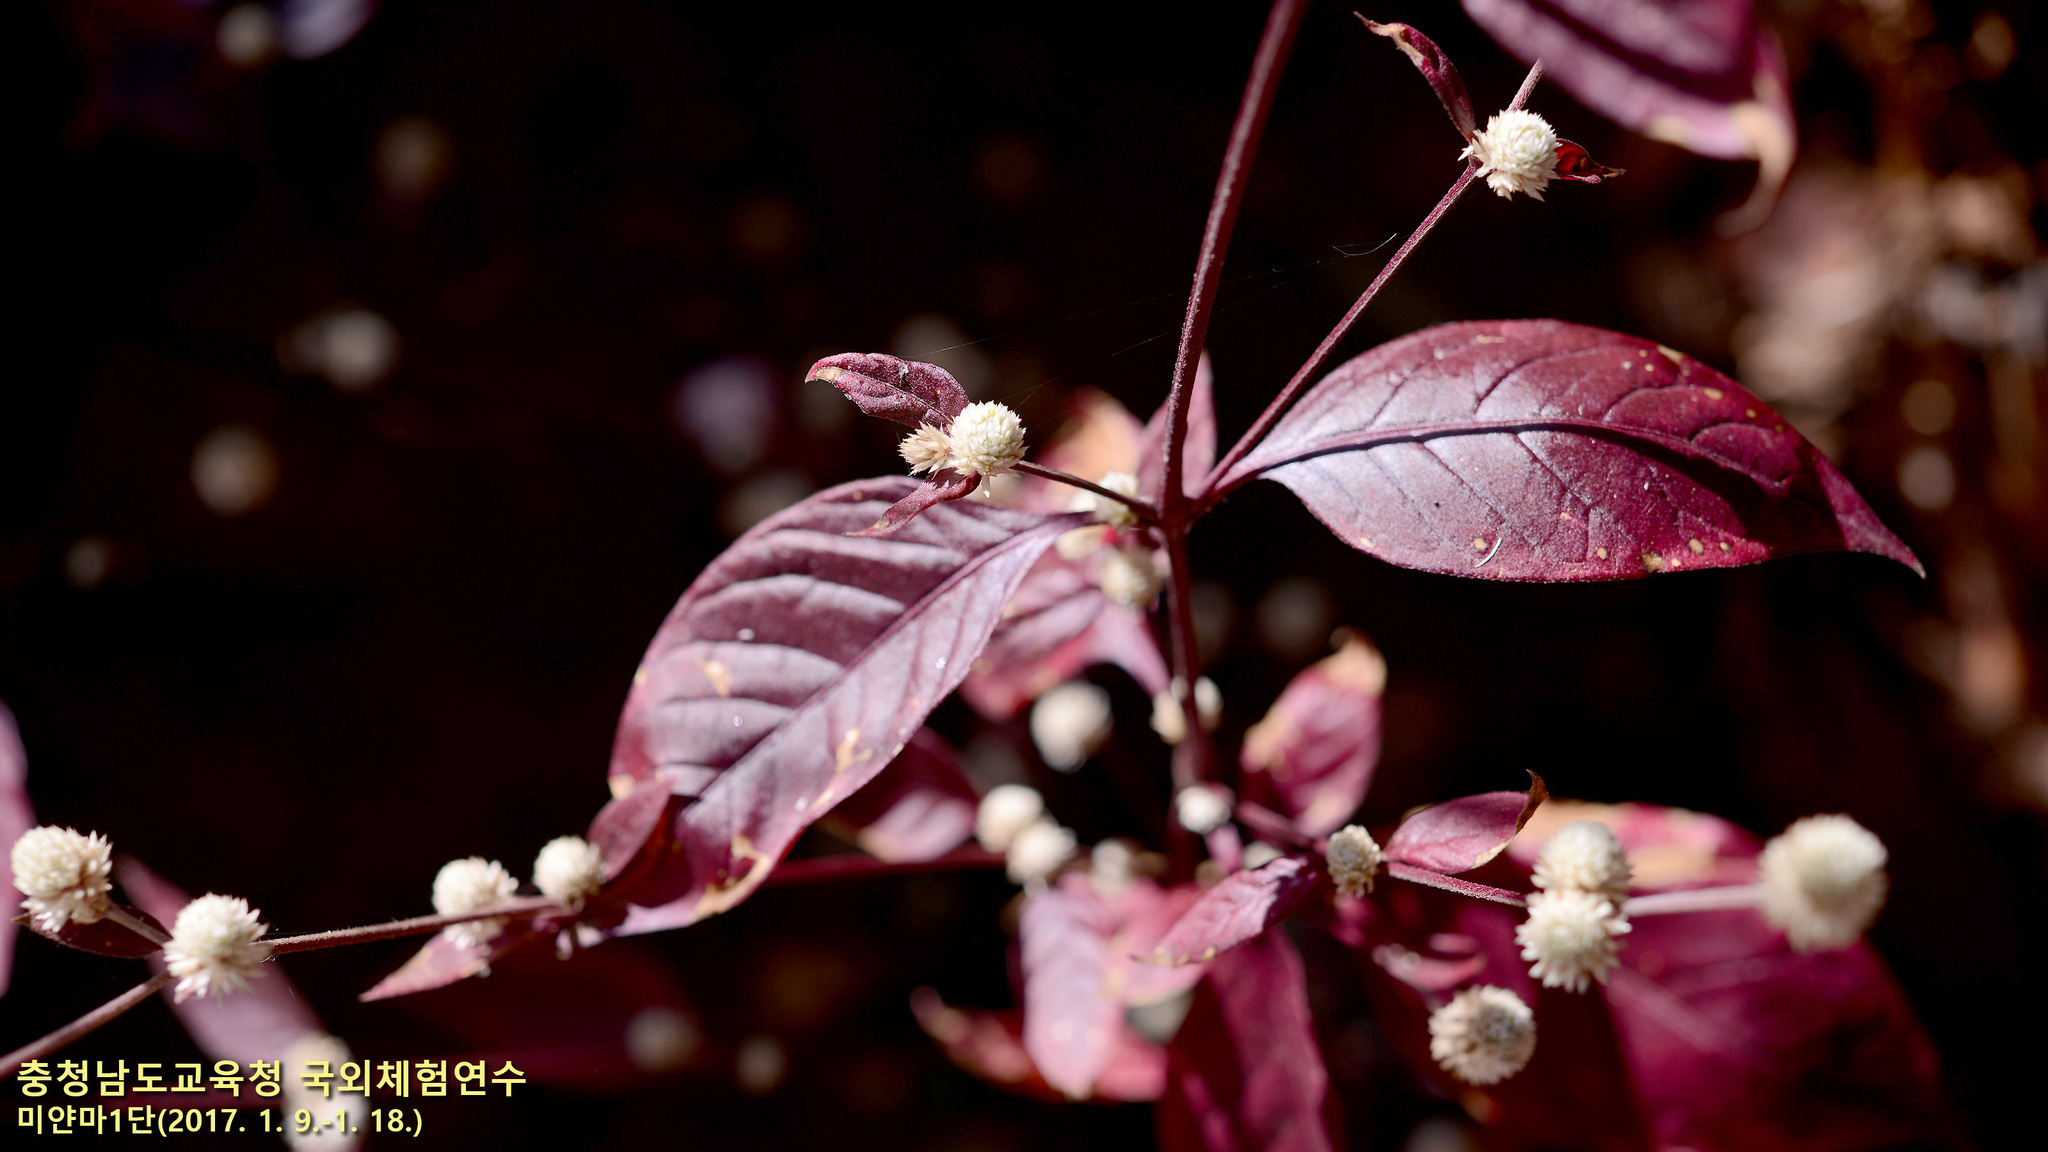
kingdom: Plantae
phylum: Tracheophyta
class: Magnoliopsida
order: Caryophyllales
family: Amaranthaceae
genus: Alternanthera
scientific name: Alternanthera brasiliana
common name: Brazilian joyweed
